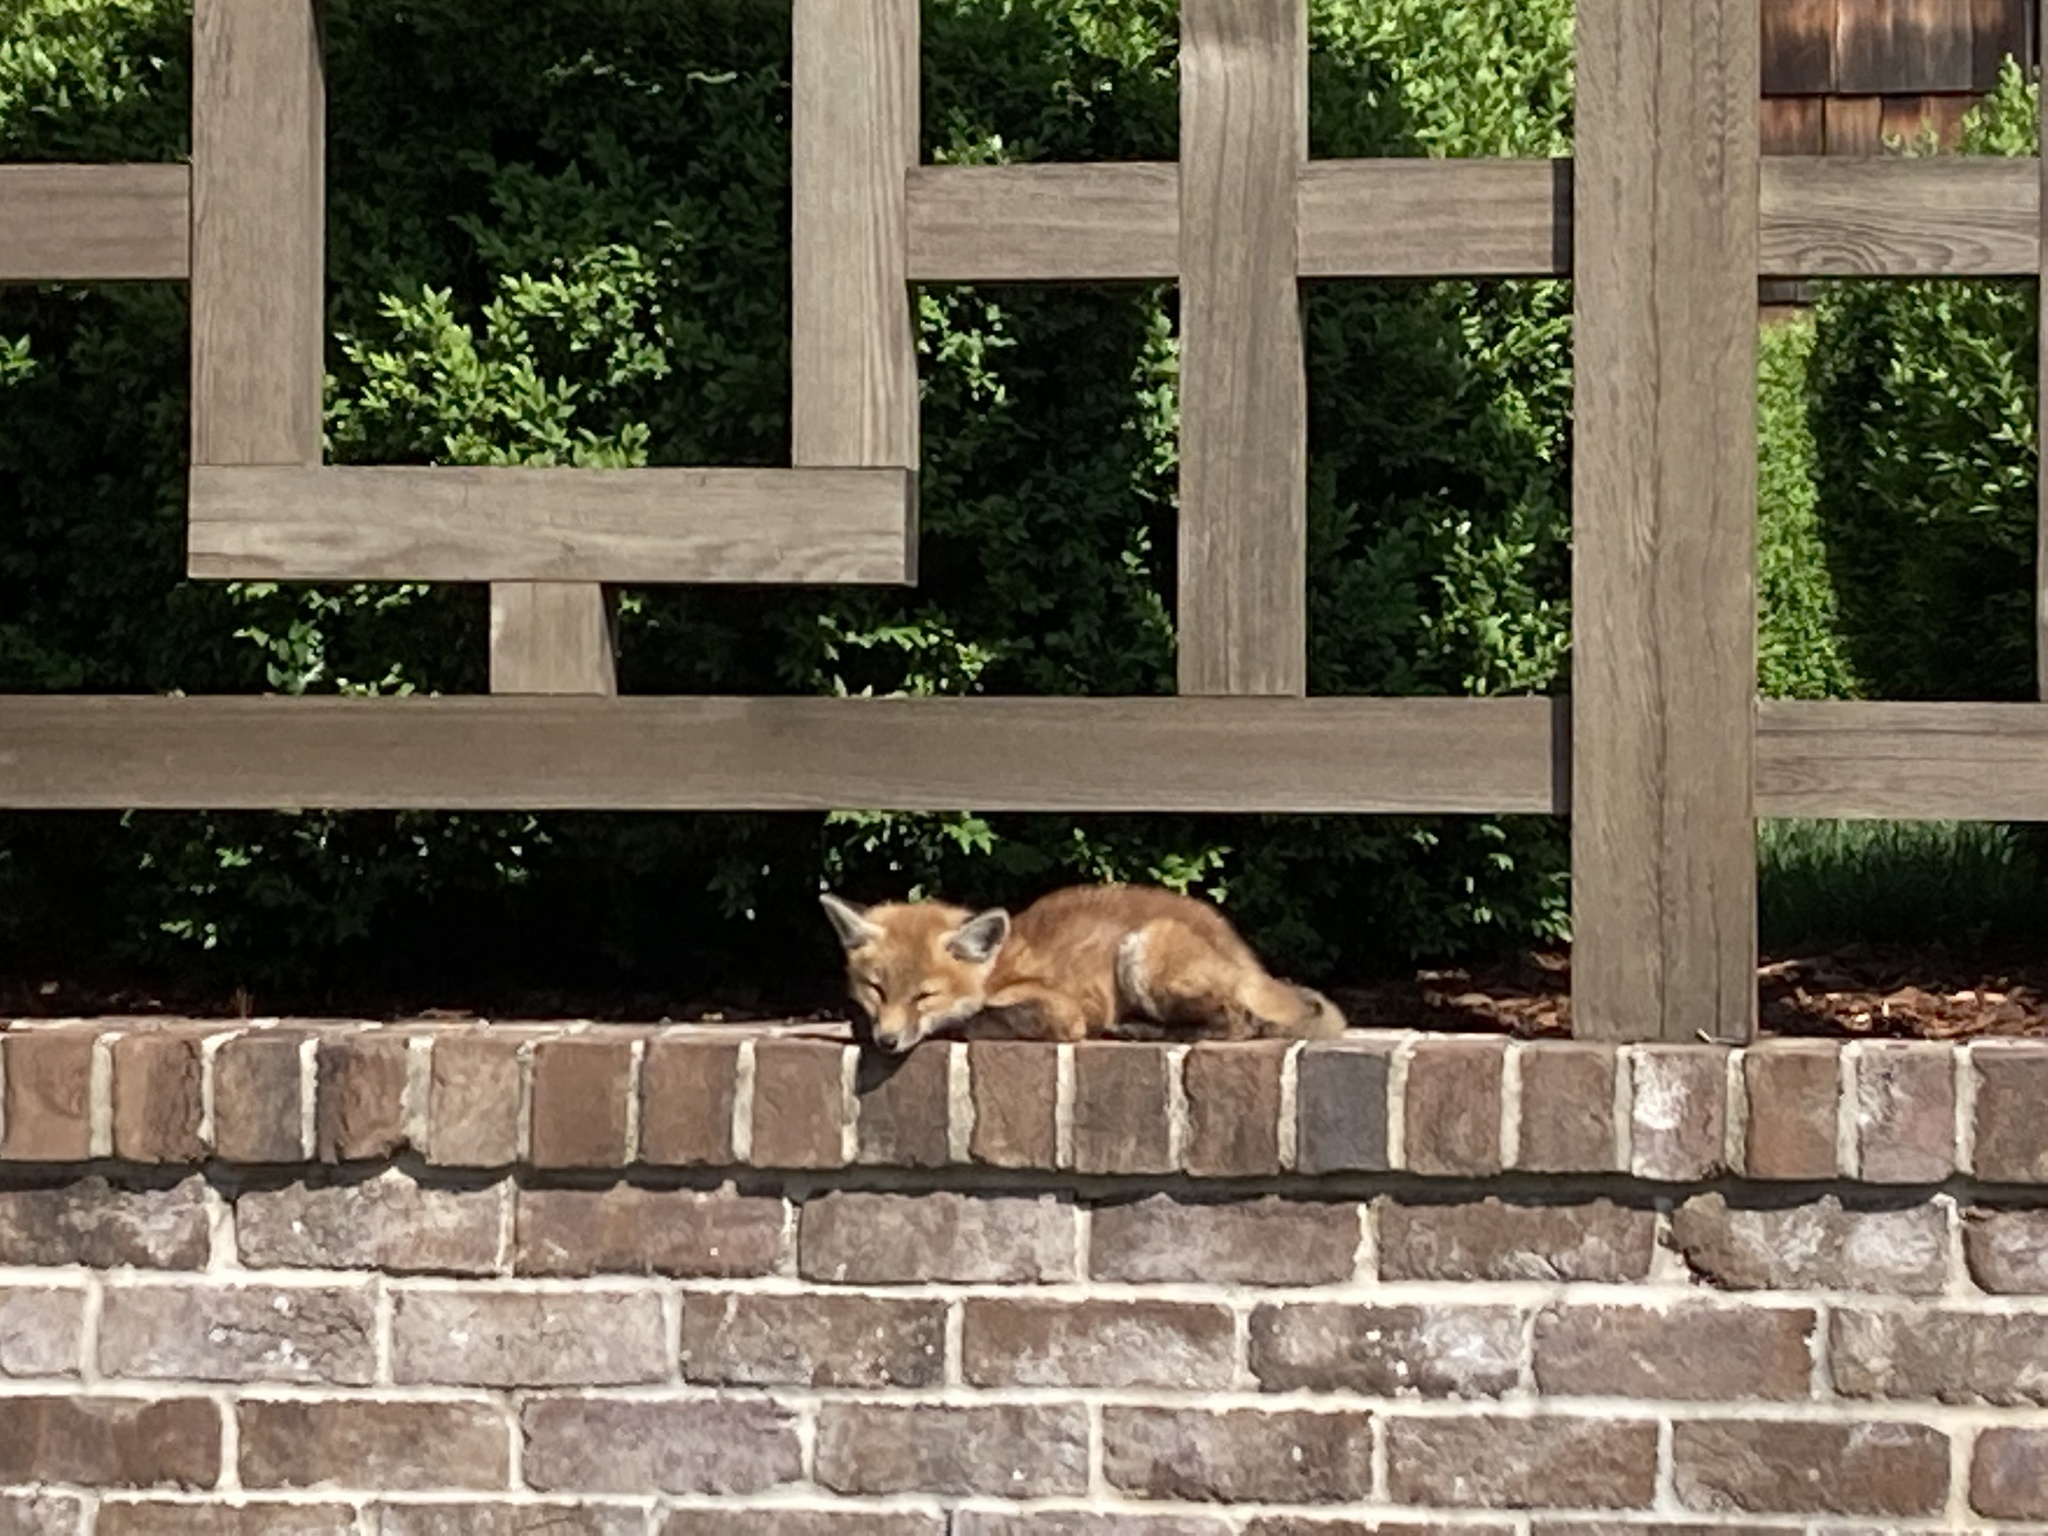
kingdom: Animalia
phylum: Chordata
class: Mammalia
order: Carnivora
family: Canidae
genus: Vulpes
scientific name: Vulpes vulpes
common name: Red fox
